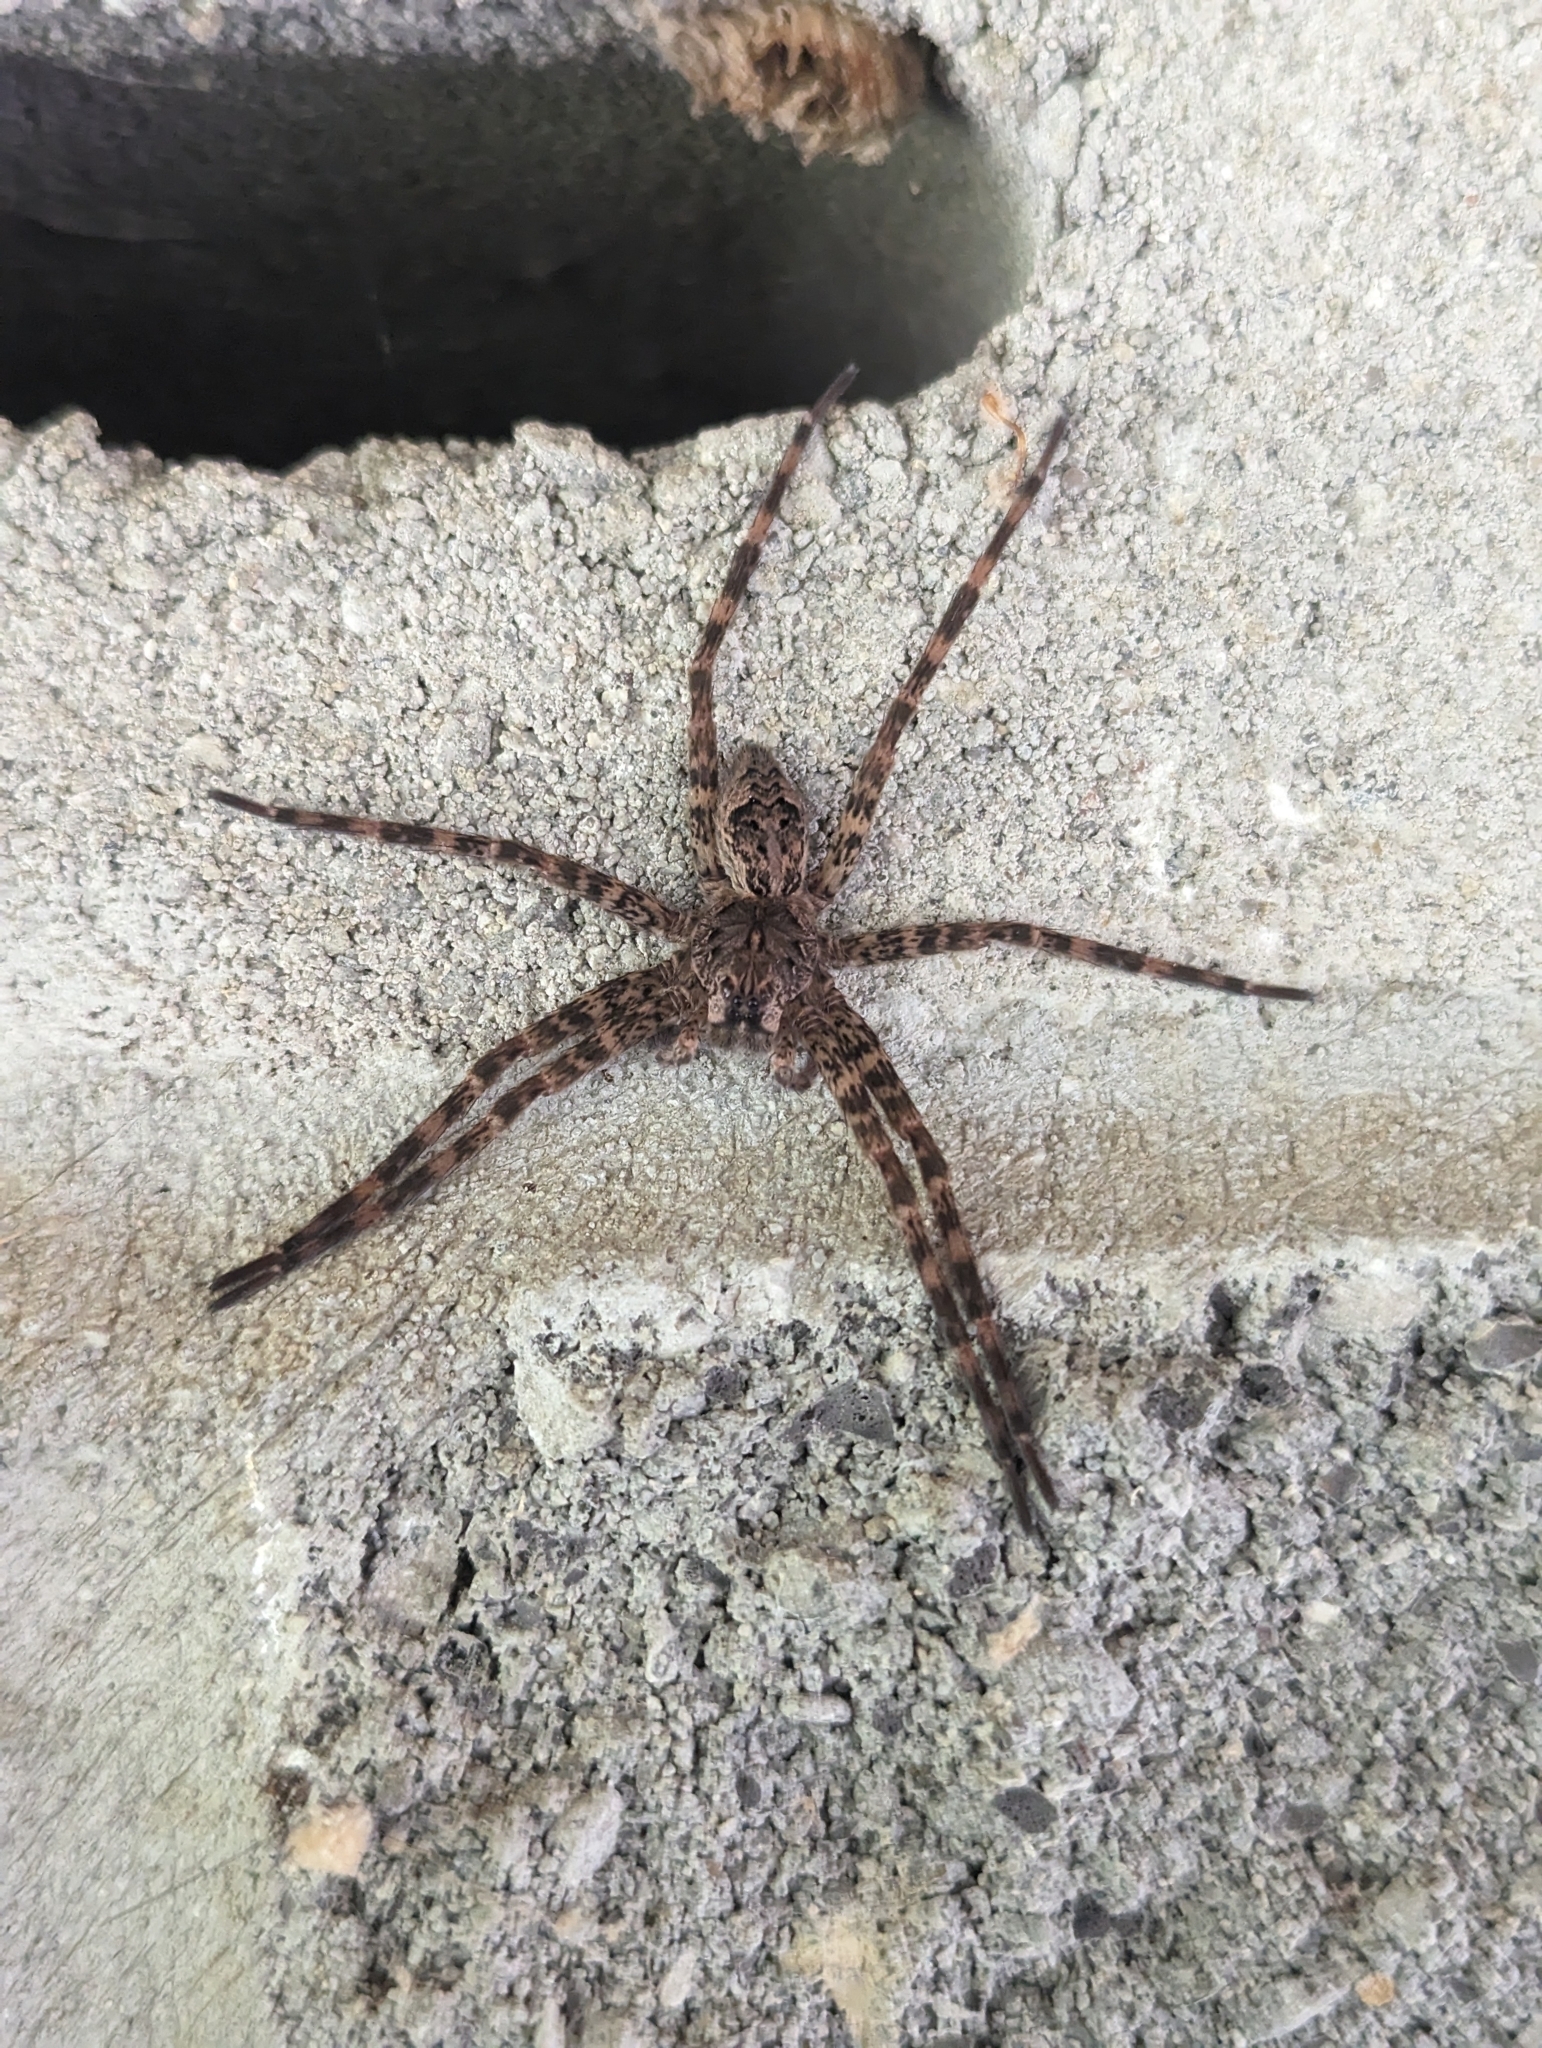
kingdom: Animalia
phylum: Arthropoda
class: Arachnida
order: Araneae
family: Pisauridae
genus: Dolomedes
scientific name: Dolomedes tenebrosus
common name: Dark fishing spider
